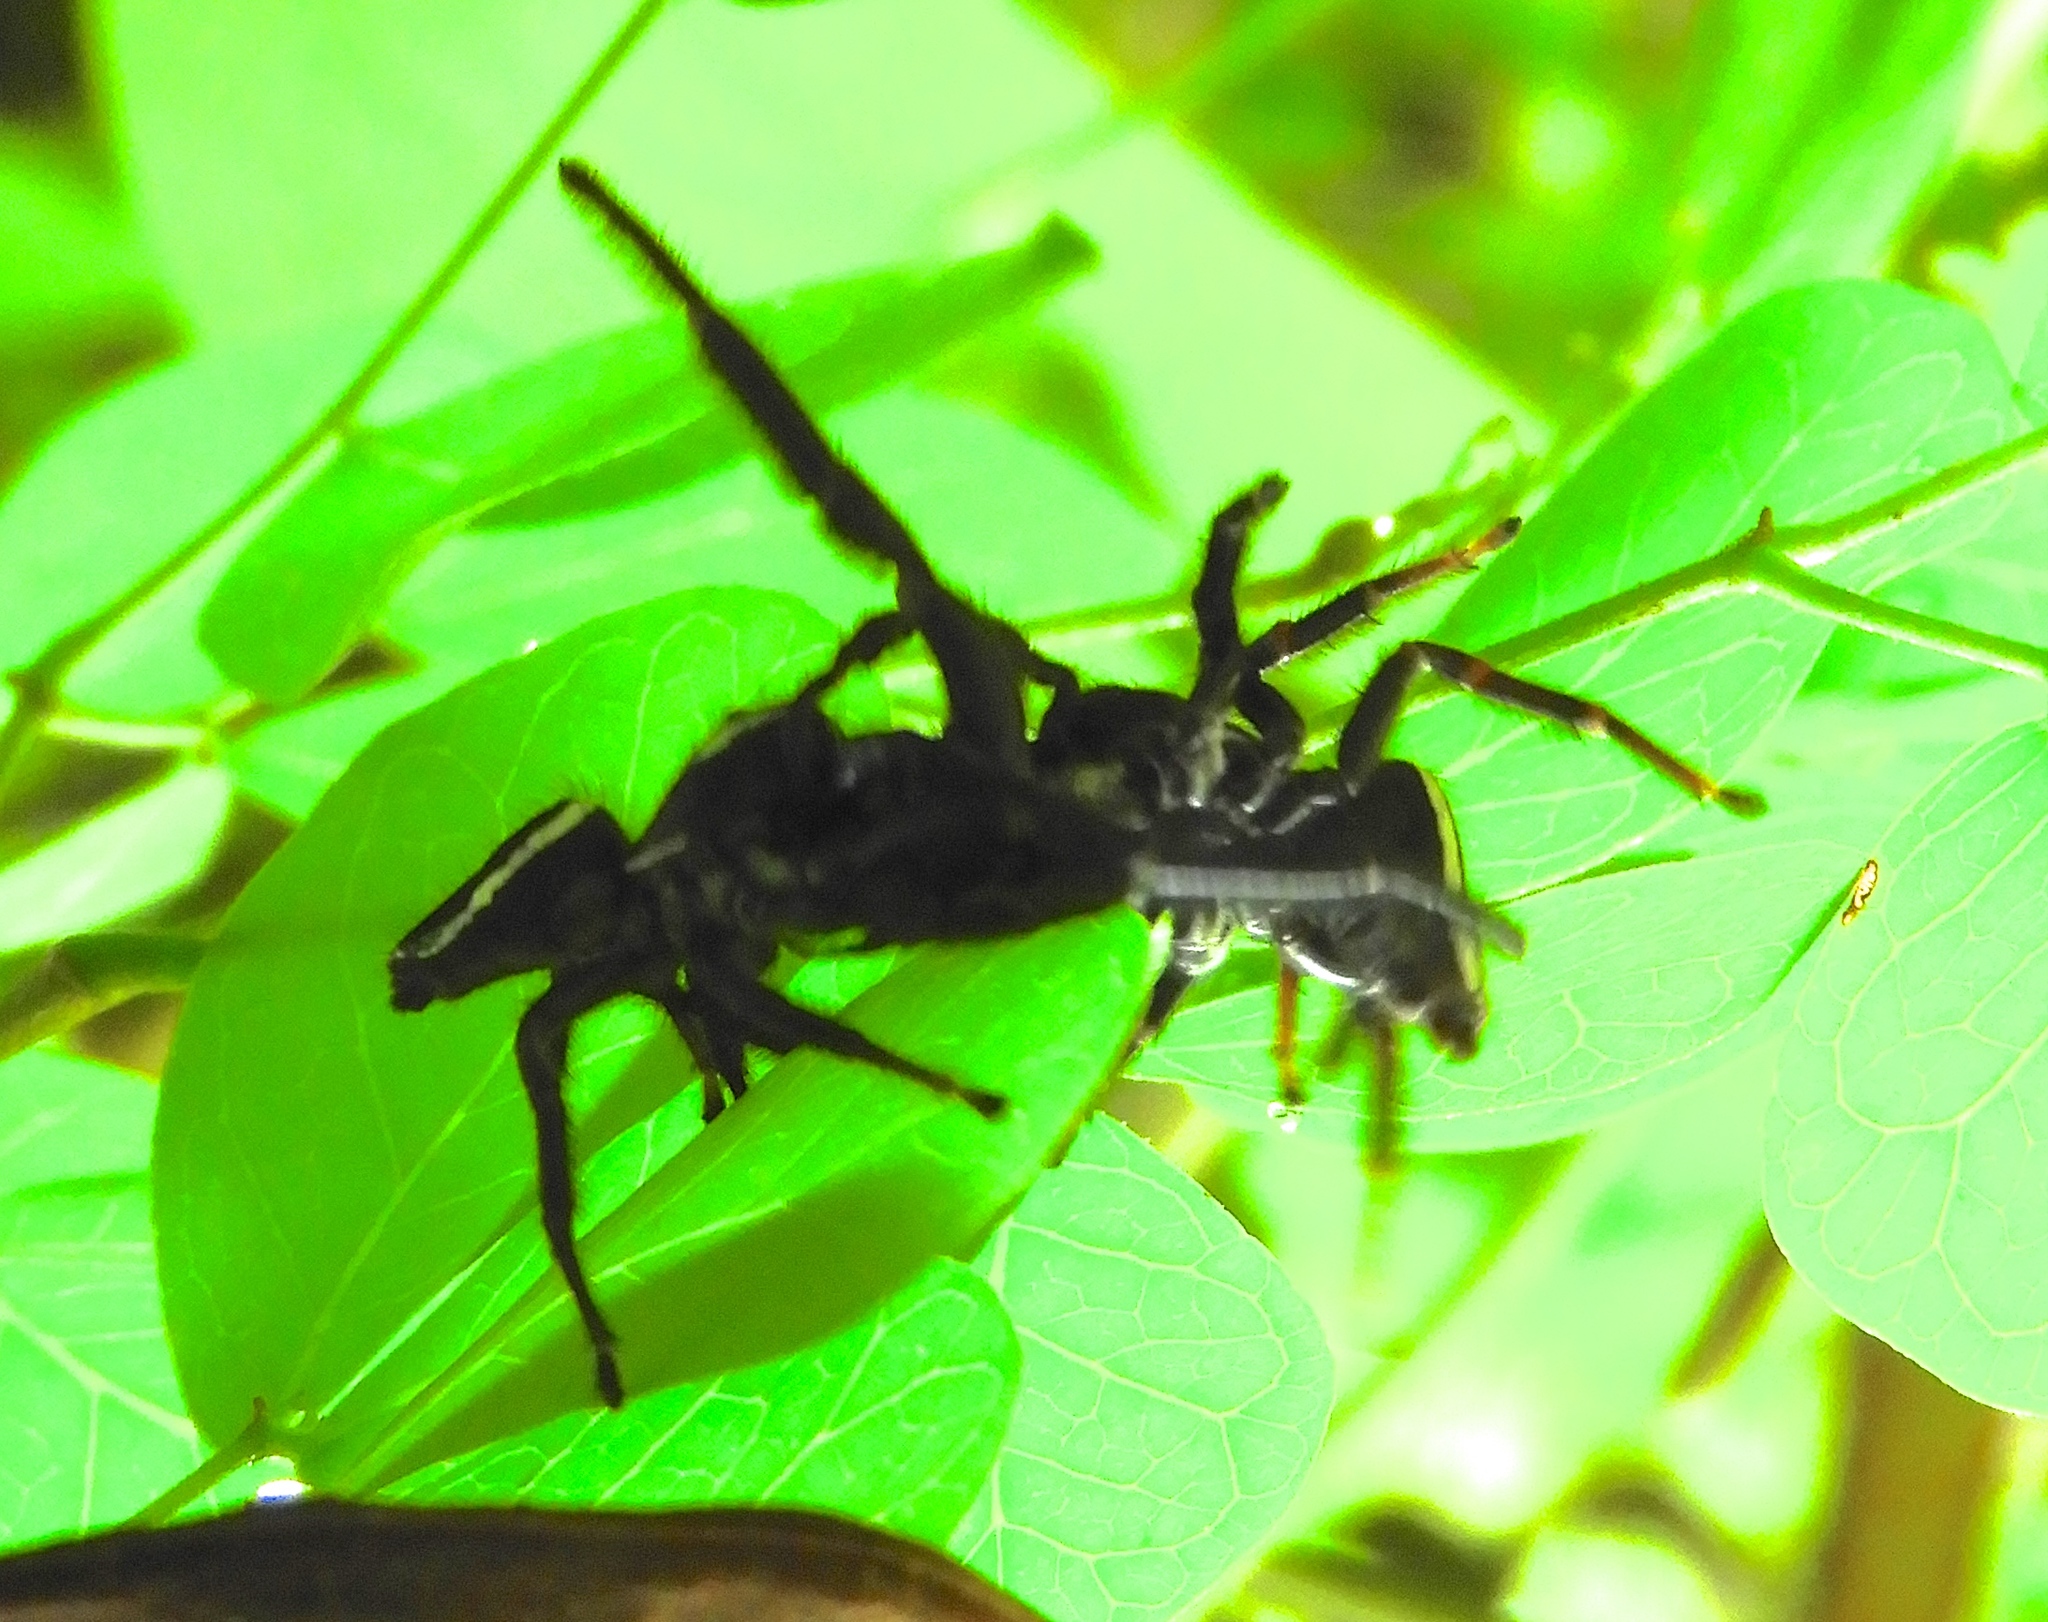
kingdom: Animalia
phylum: Arthropoda
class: Arachnida
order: Araneae
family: Salticidae
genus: Messua
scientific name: Messua
